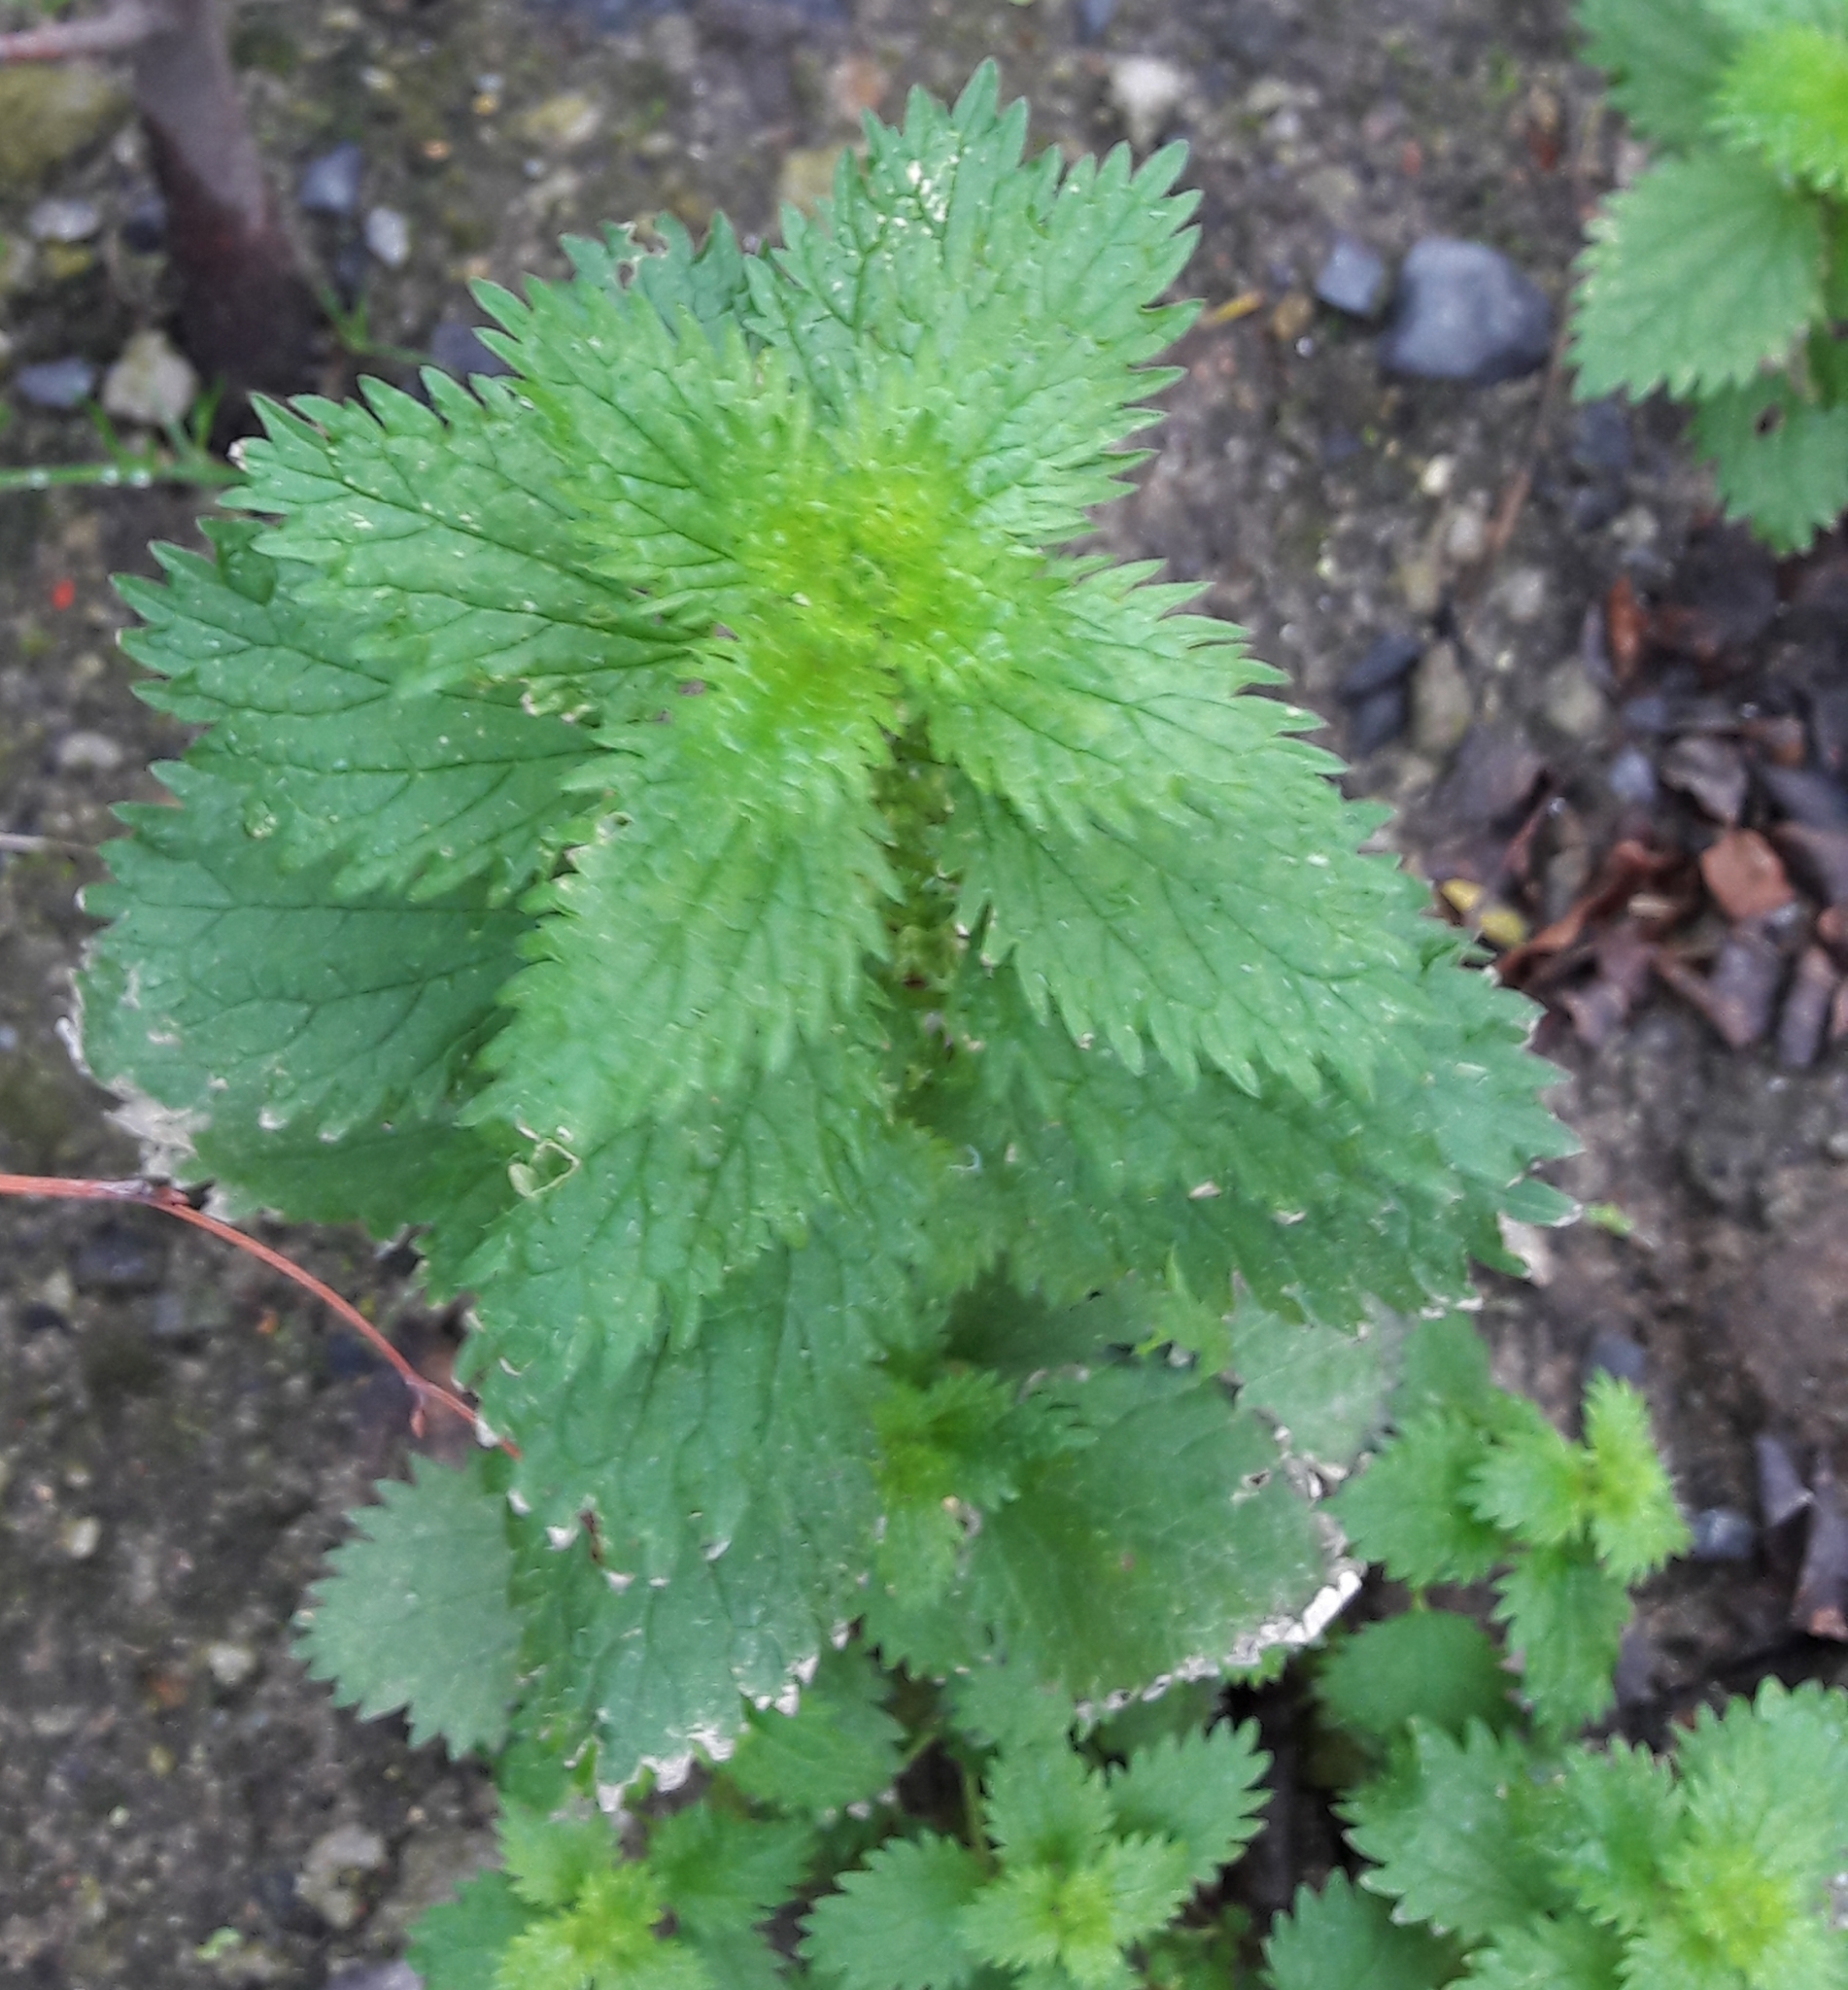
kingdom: Plantae
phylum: Tracheophyta
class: Magnoliopsida
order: Rosales
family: Urticaceae
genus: Urtica
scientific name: Urtica urens
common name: Dwarf nettle
